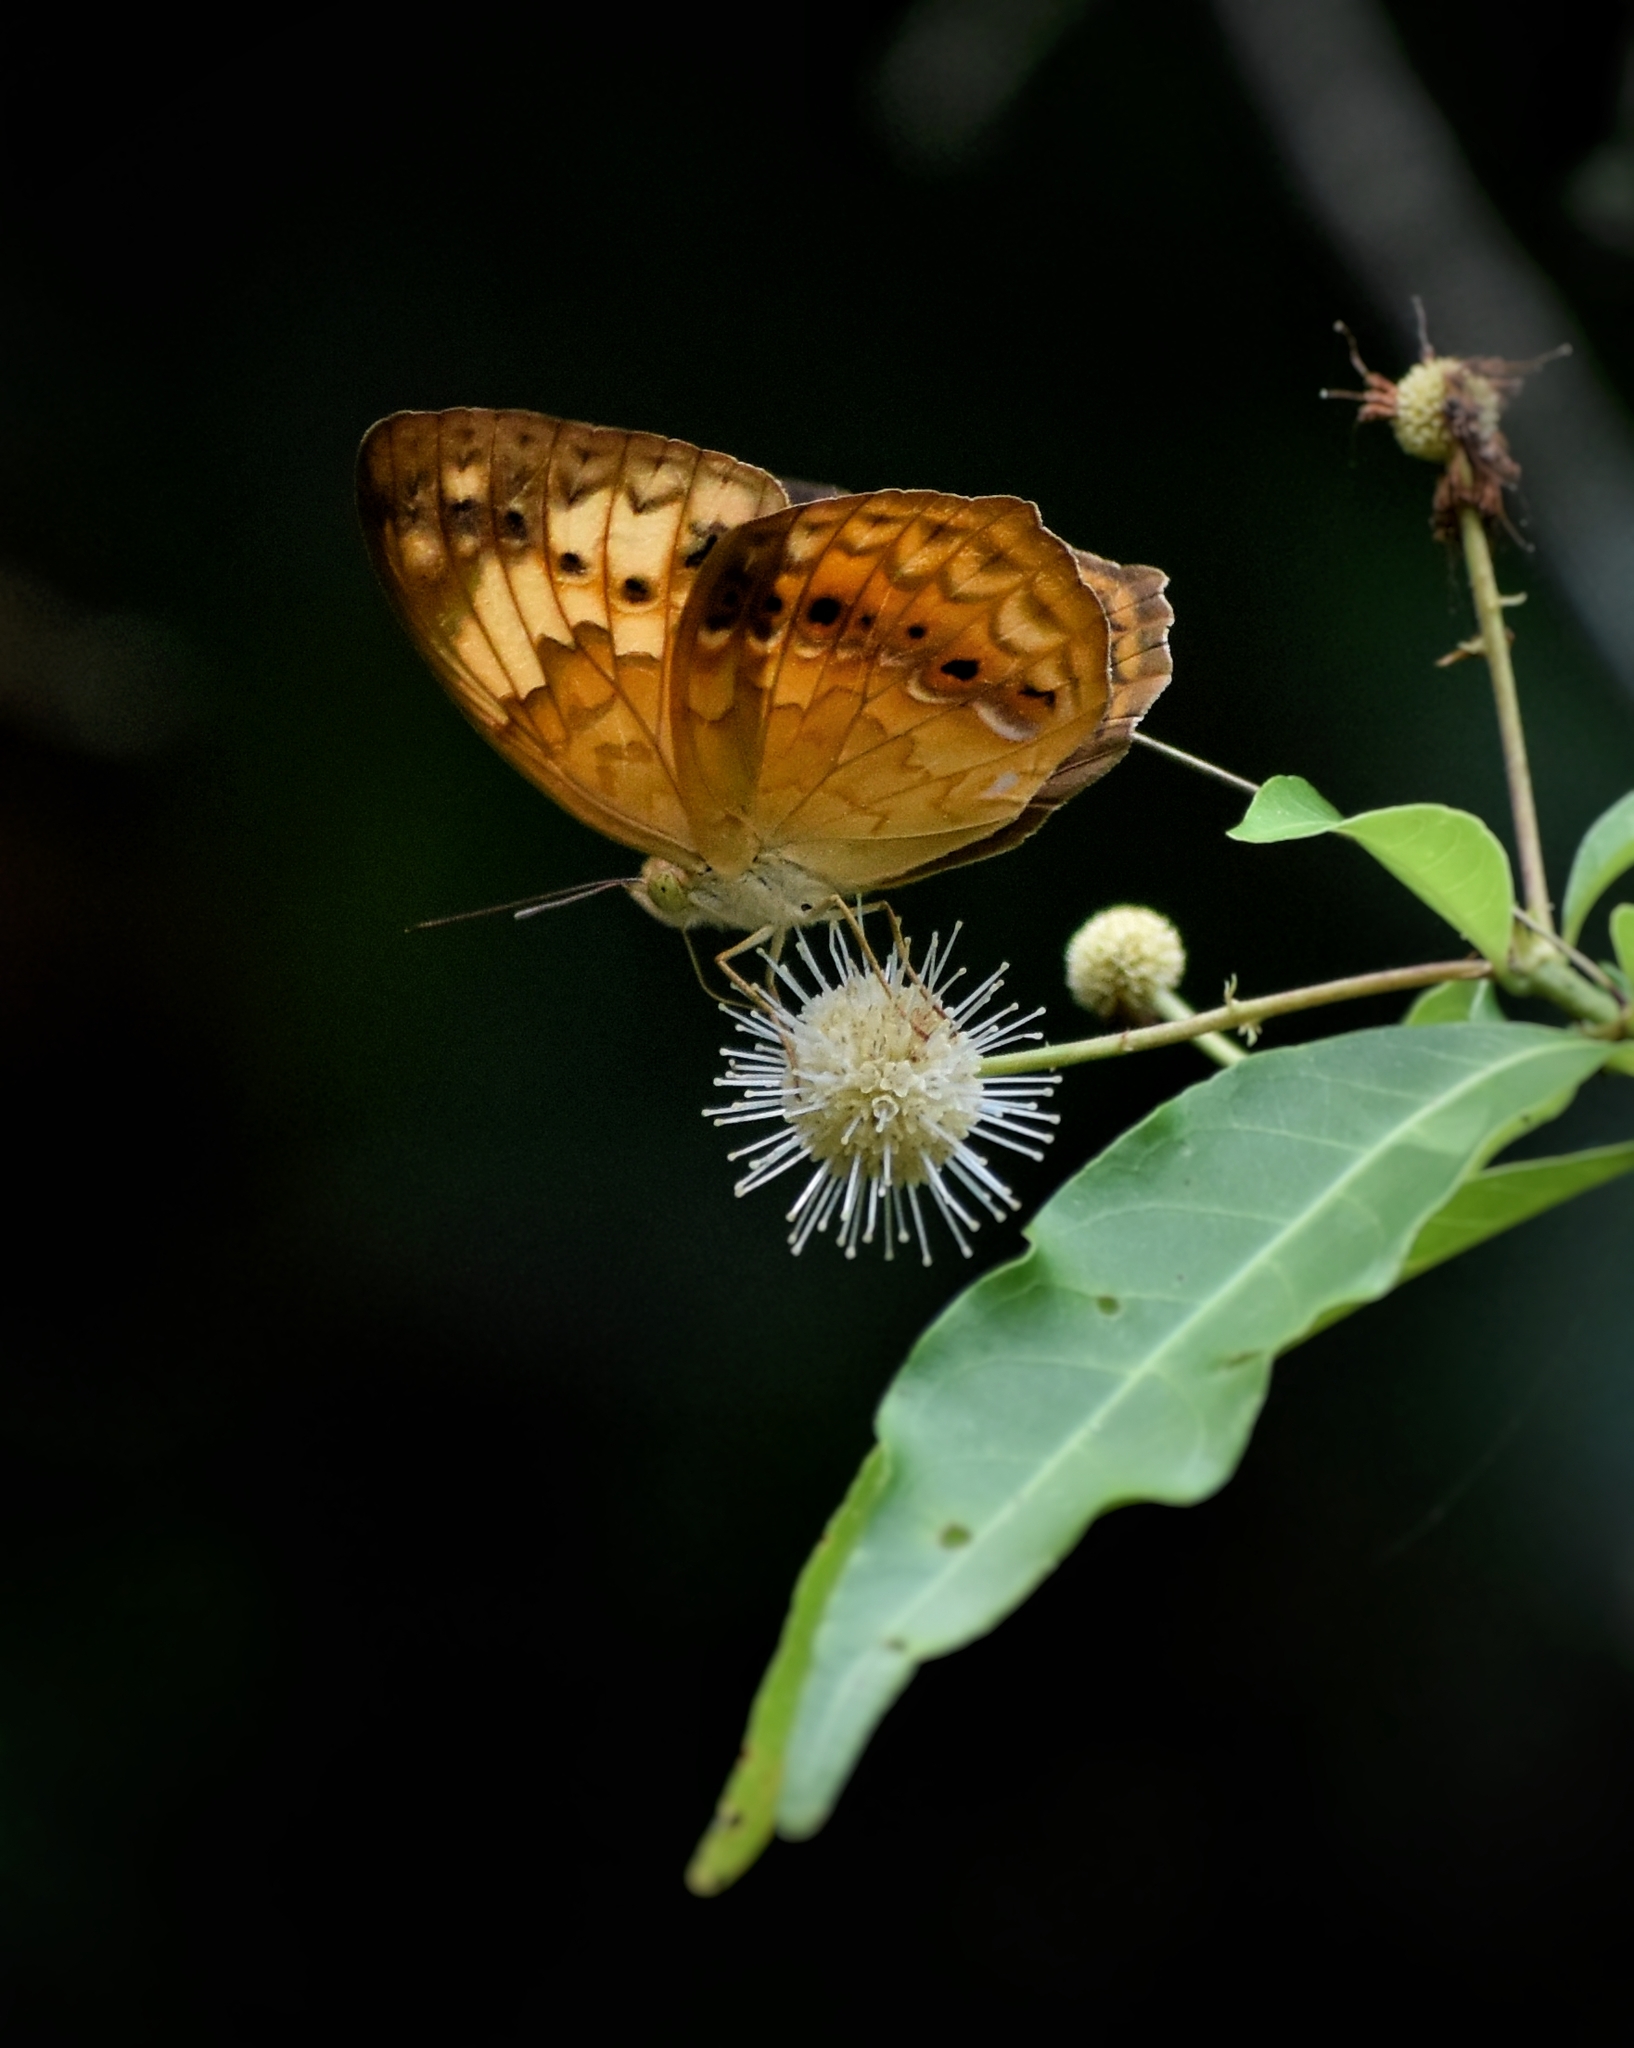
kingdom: Animalia
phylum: Arthropoda
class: Insecta
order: Lepidoptera
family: Nymphalidae
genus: Cupha
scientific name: Cupha erymanthis
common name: Rustic
